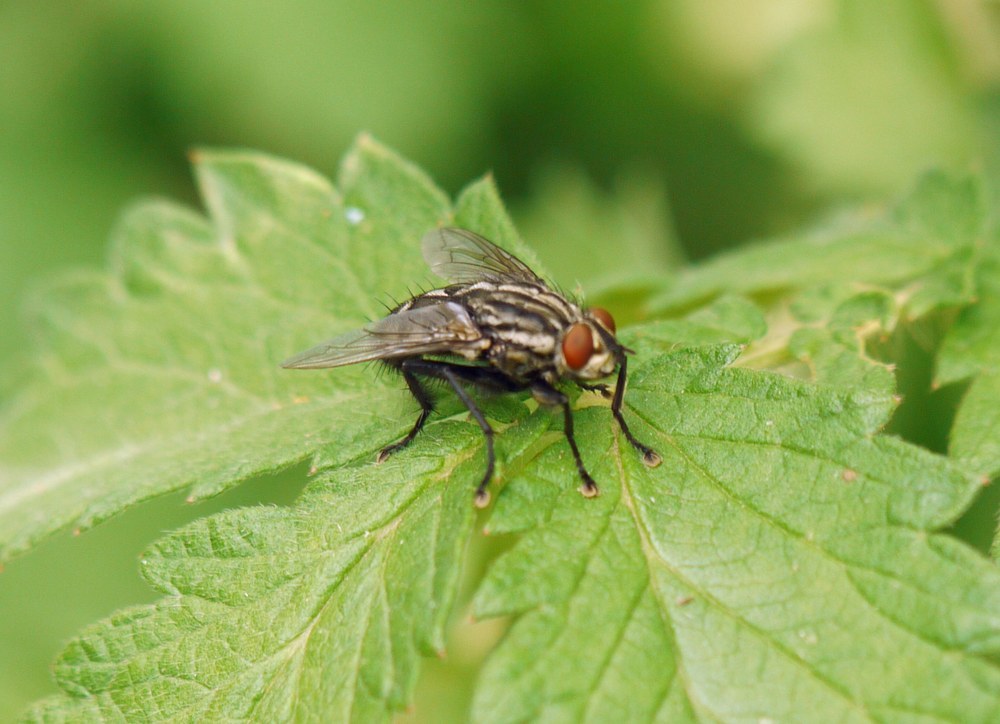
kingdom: Animalia
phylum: Arthropoda
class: Insecta
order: Diptera
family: Sarcophagidae
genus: Sarcophaga
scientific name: Sarcophaga
